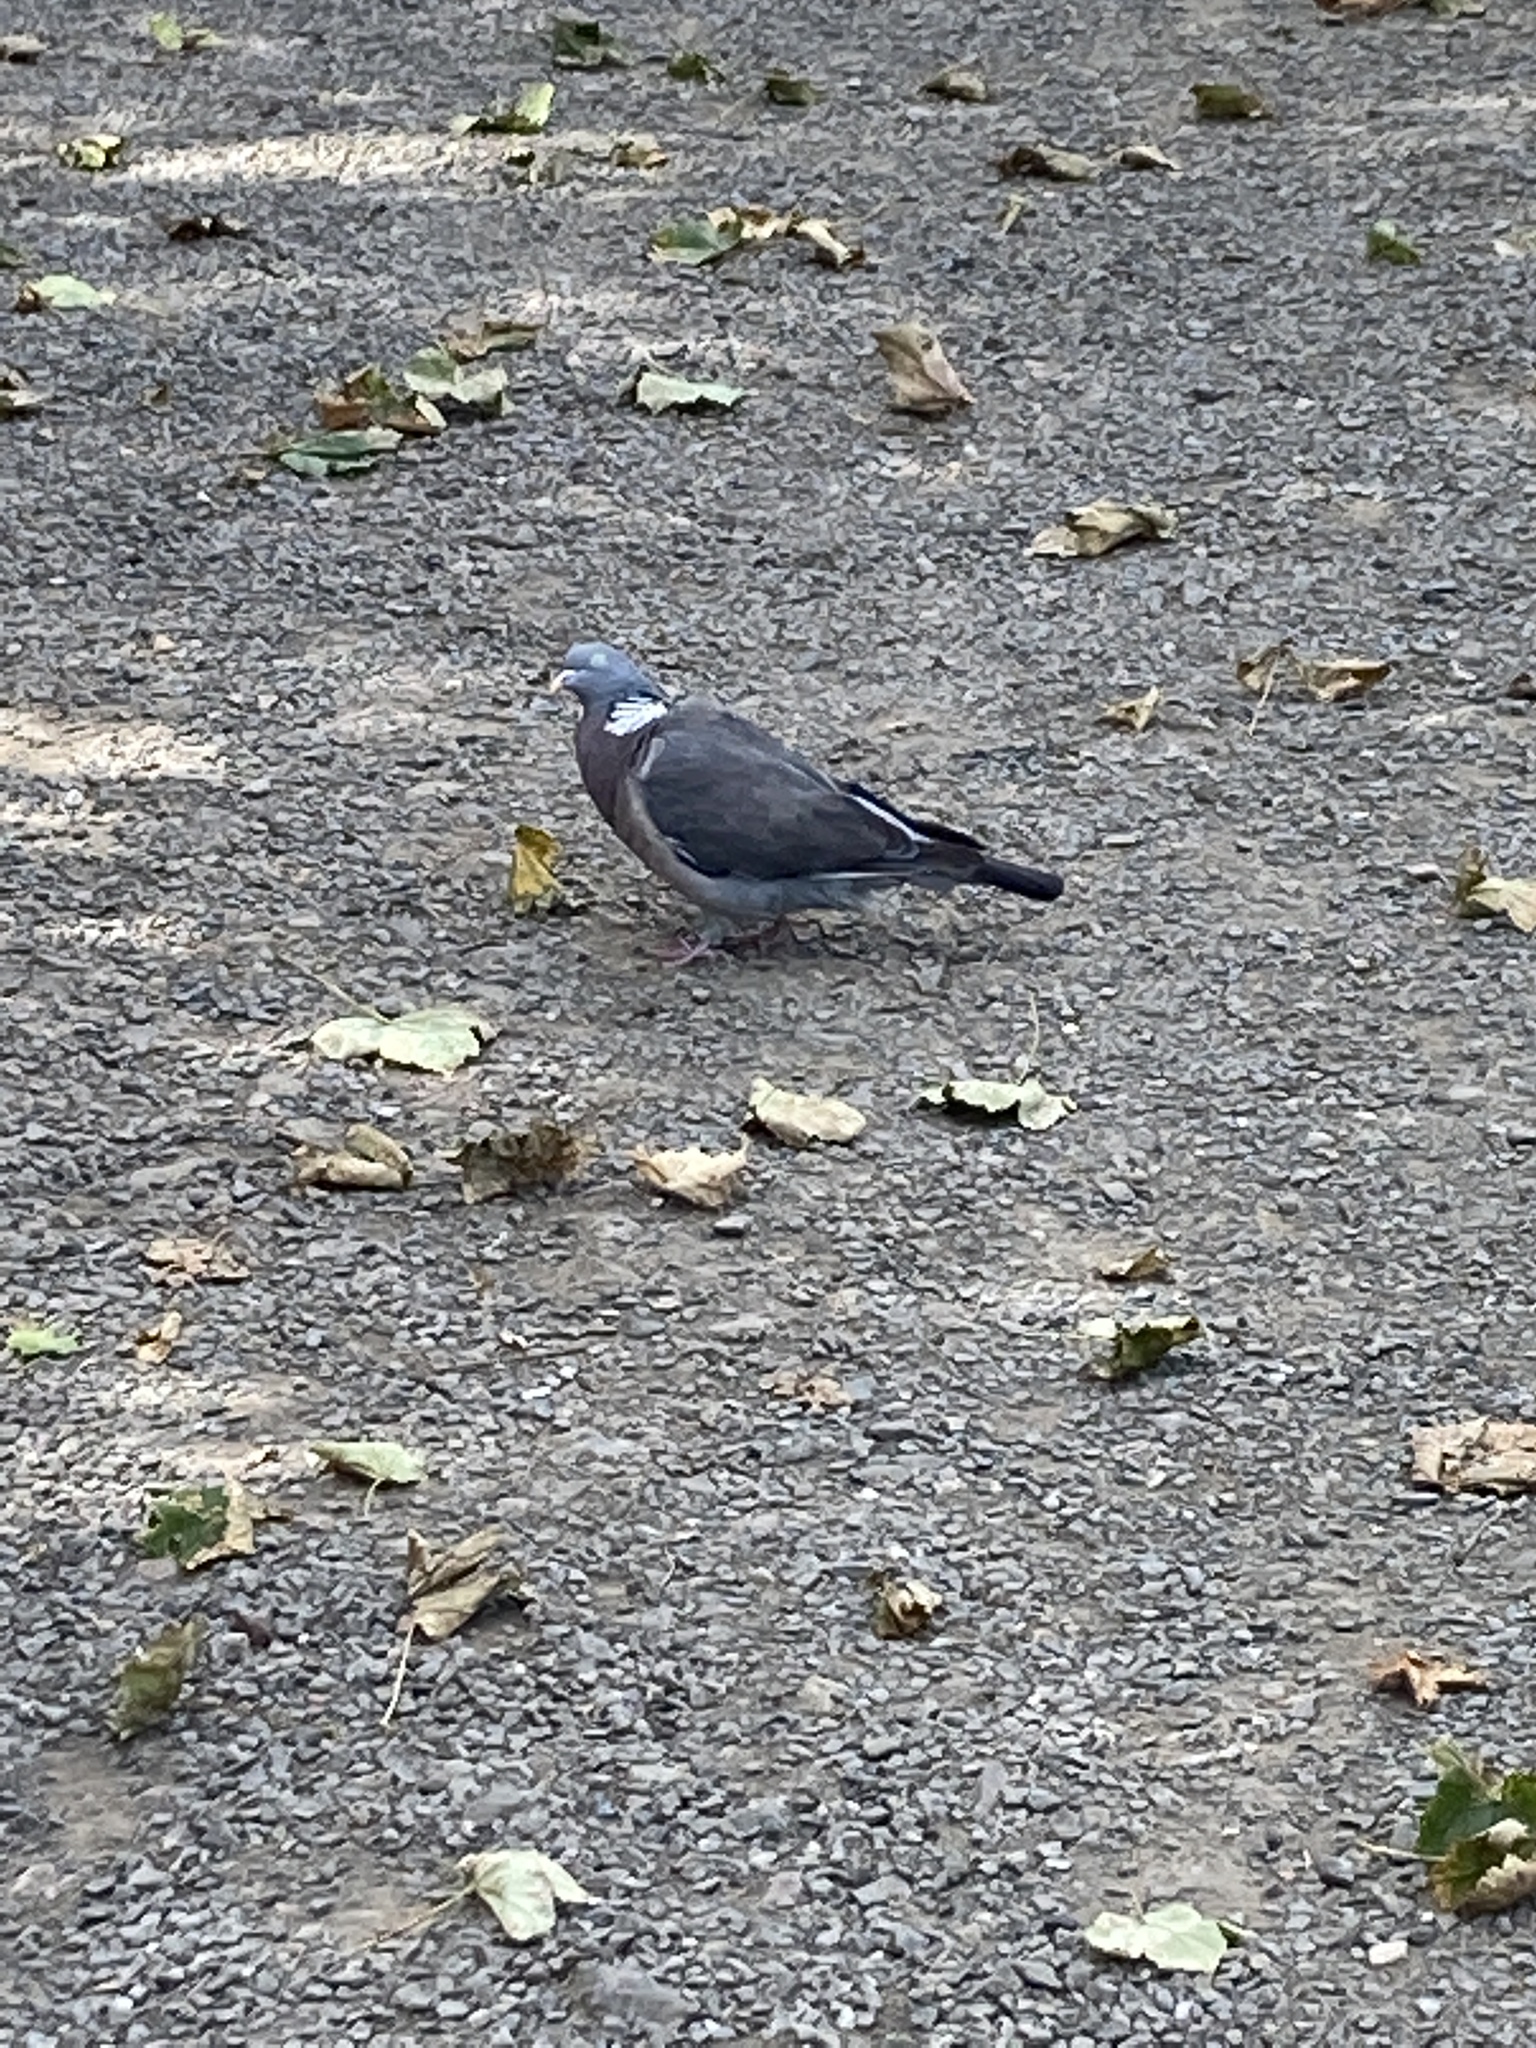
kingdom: Animalia
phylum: Chordata
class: Aves
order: Columbiformes
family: Columbidae
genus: Columba
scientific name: Columba palumbus
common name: Common wood pigeon
